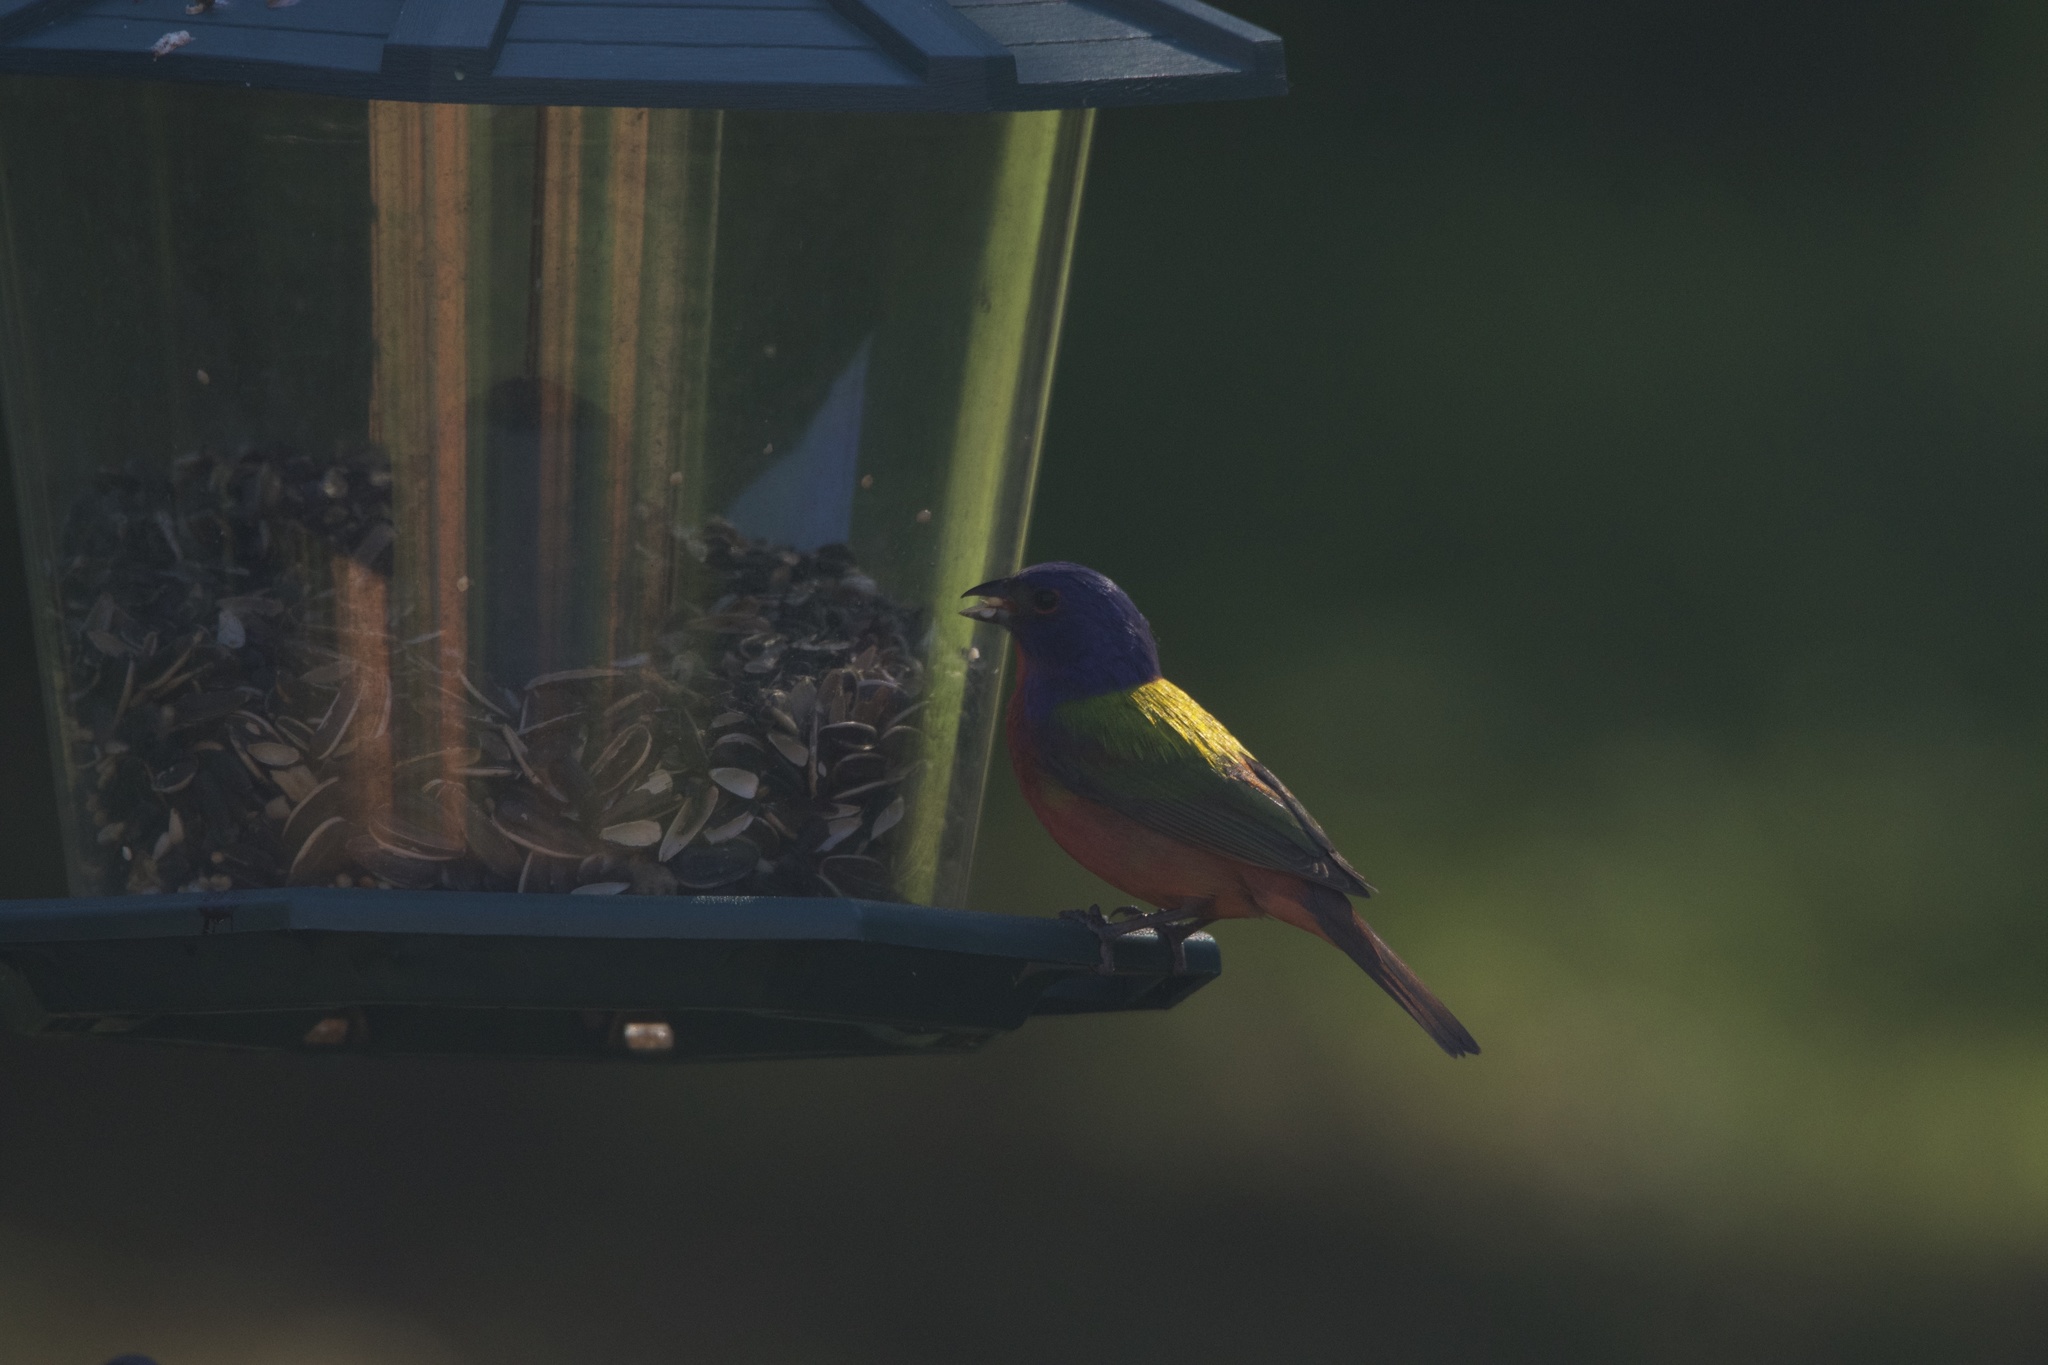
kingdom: Animalia
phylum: Chordata
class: Aves
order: Passeriformes
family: Cardinalidae
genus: Passerina
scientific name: Passerina ciris
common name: Painted bunting
